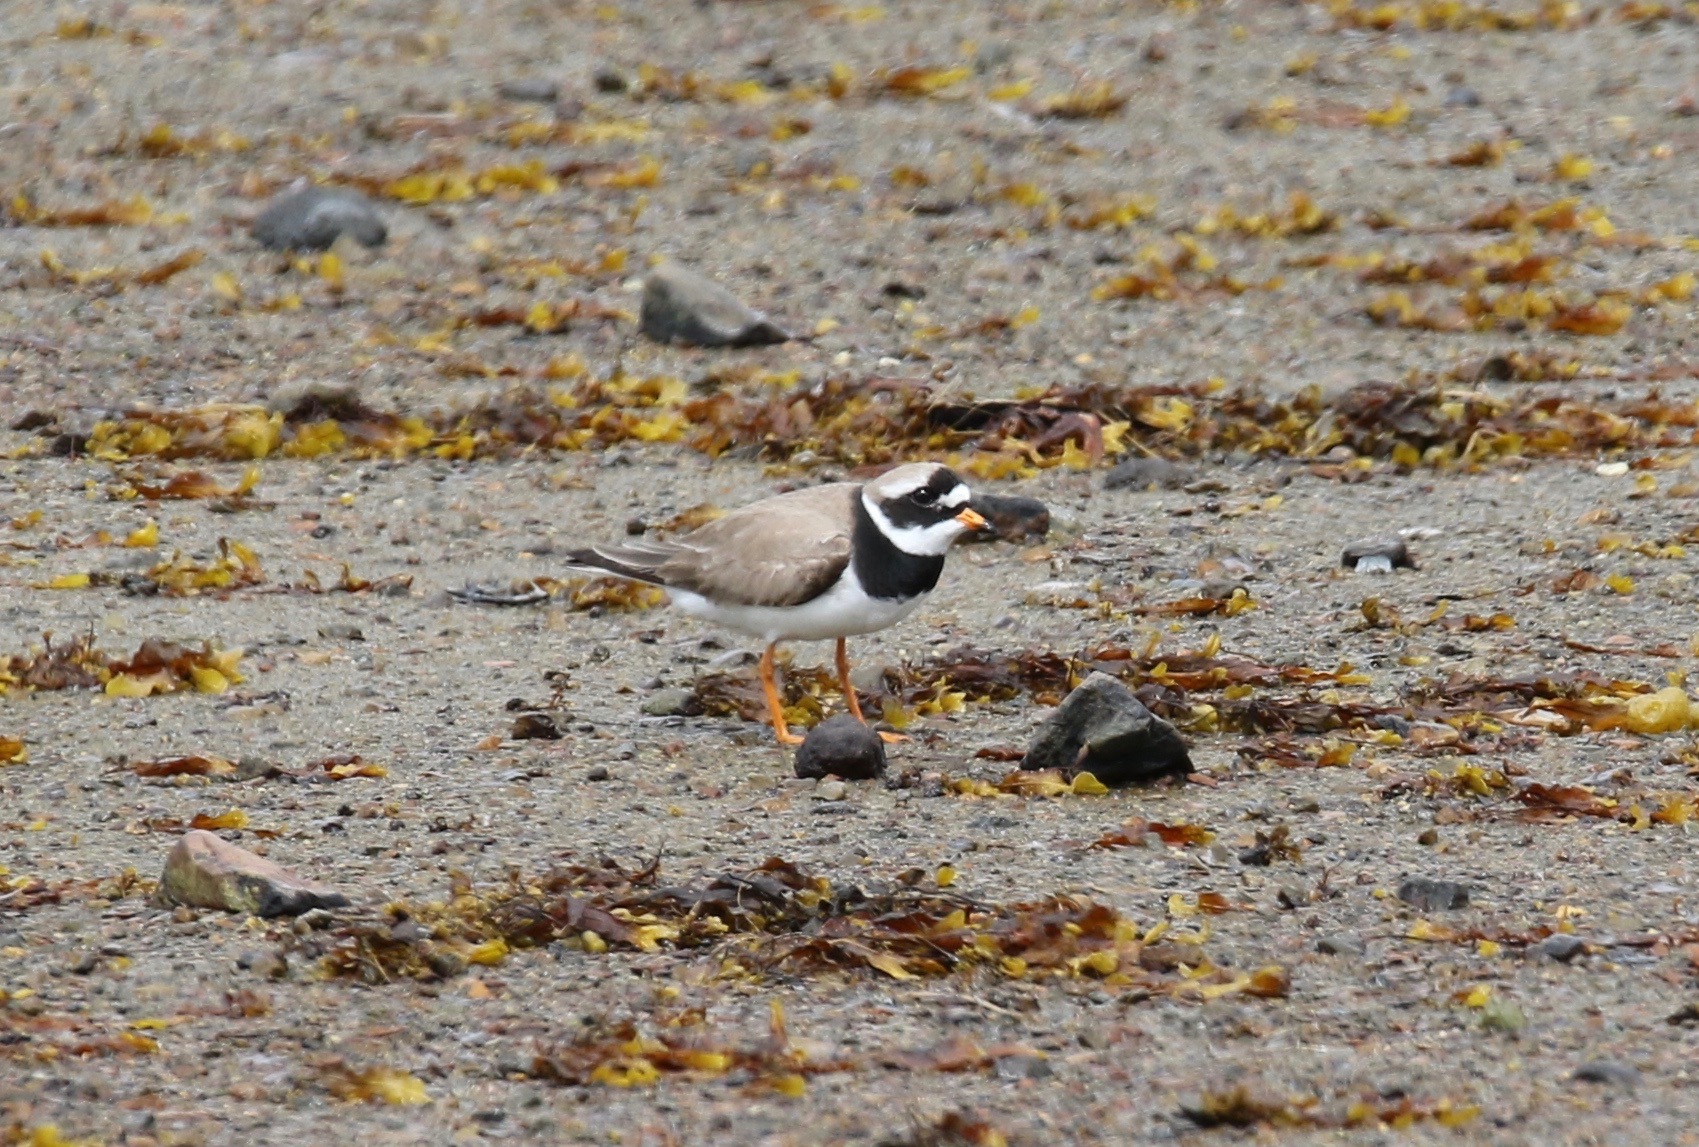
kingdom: Animalia
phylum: Chordata
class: Aves
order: Charadriiformes
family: Charadriidae
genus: Charadrius
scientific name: Charadrius hiaticula
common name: Common ringed plover
